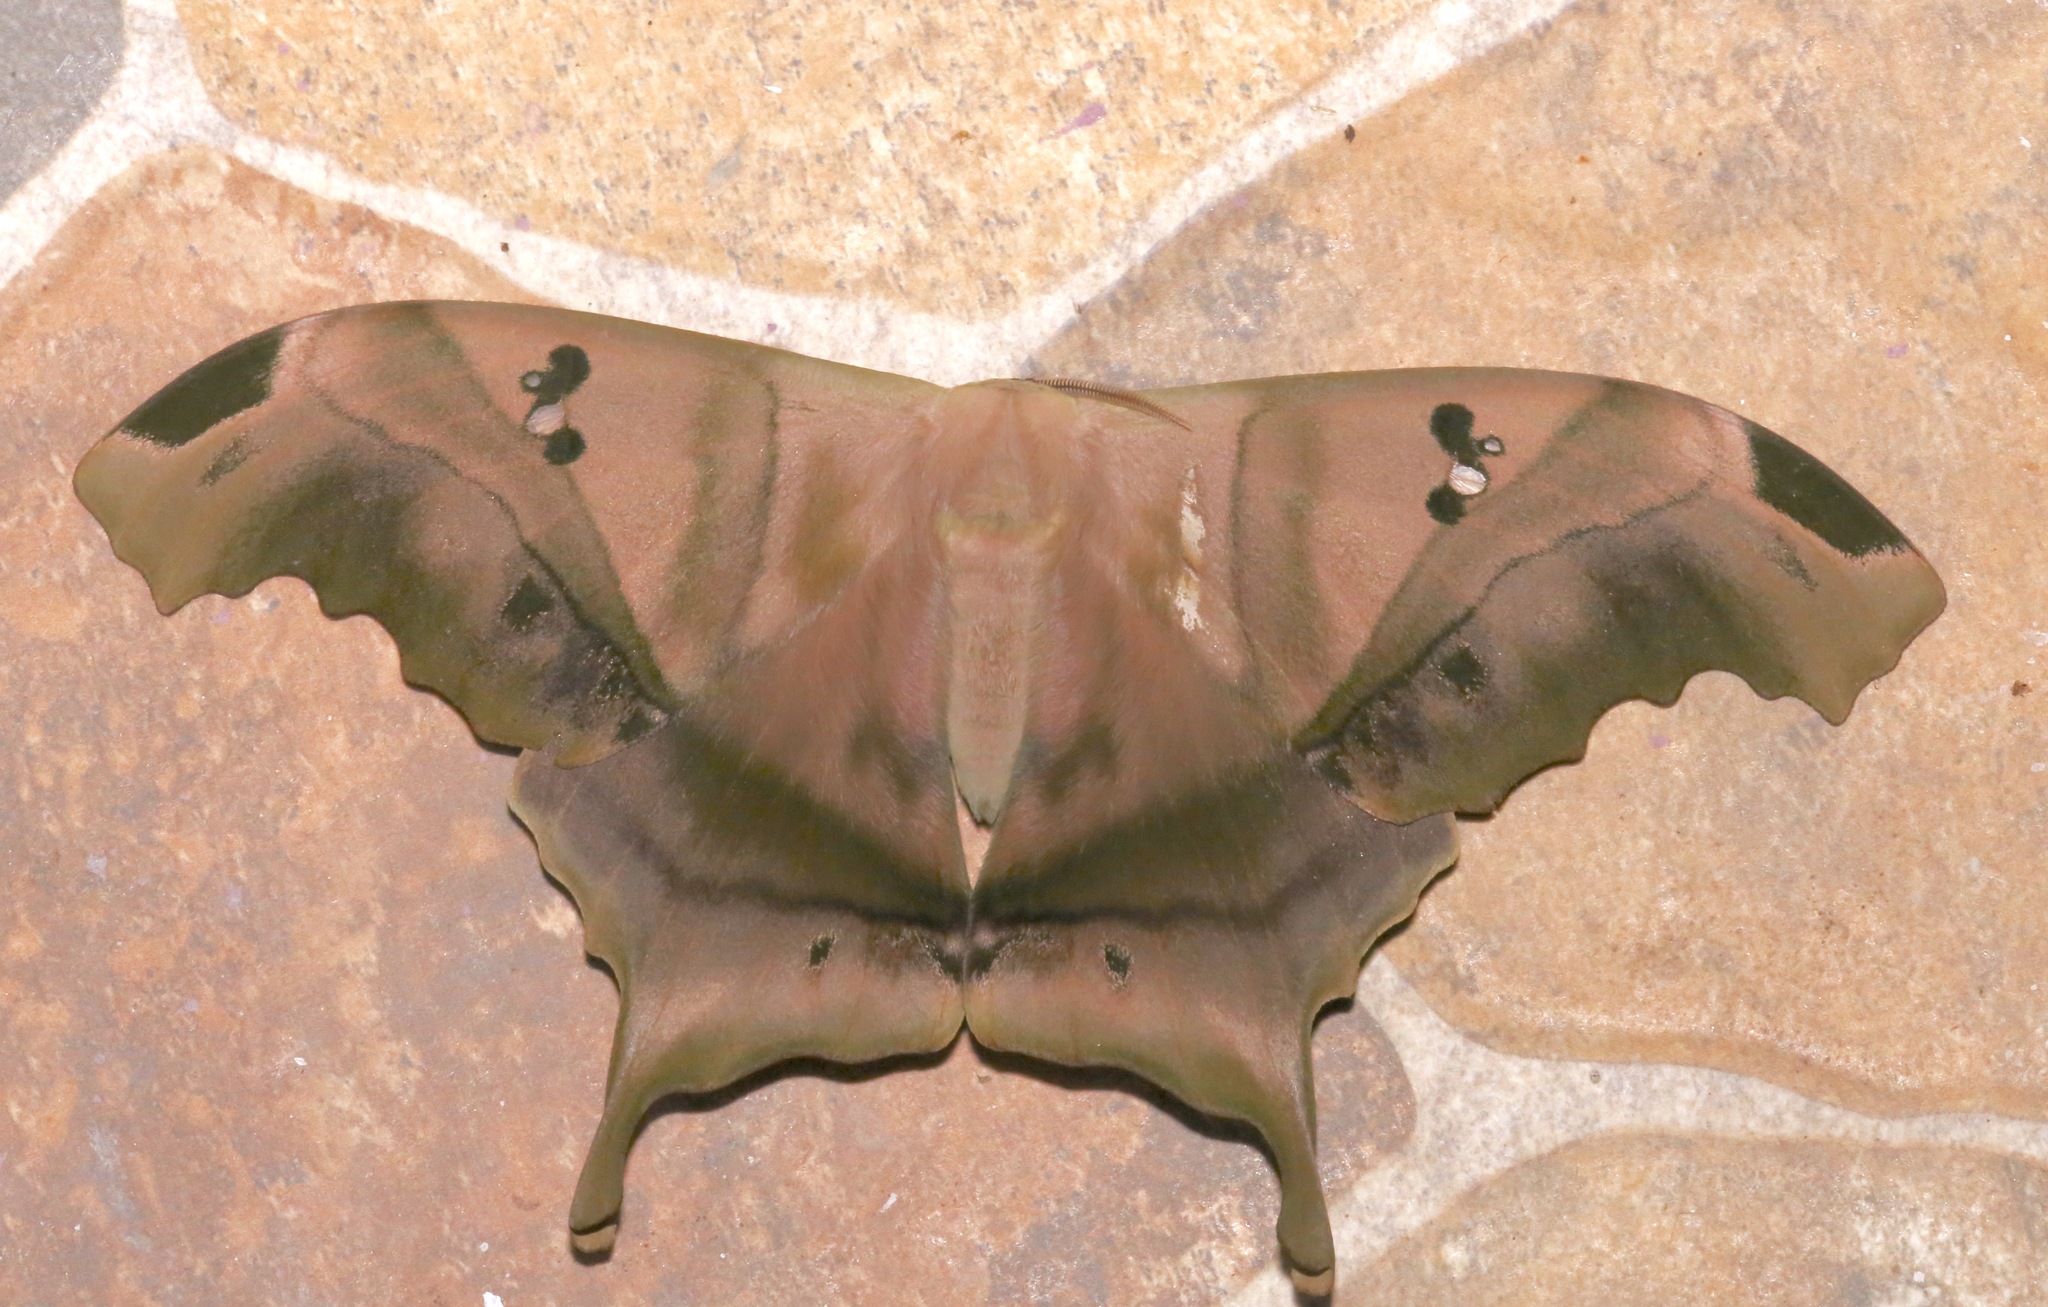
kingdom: Animalia
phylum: Arthropoda
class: Insecta
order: Lepidoptera
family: Saturniidae
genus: Titaea
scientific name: Titaea tamerlan
